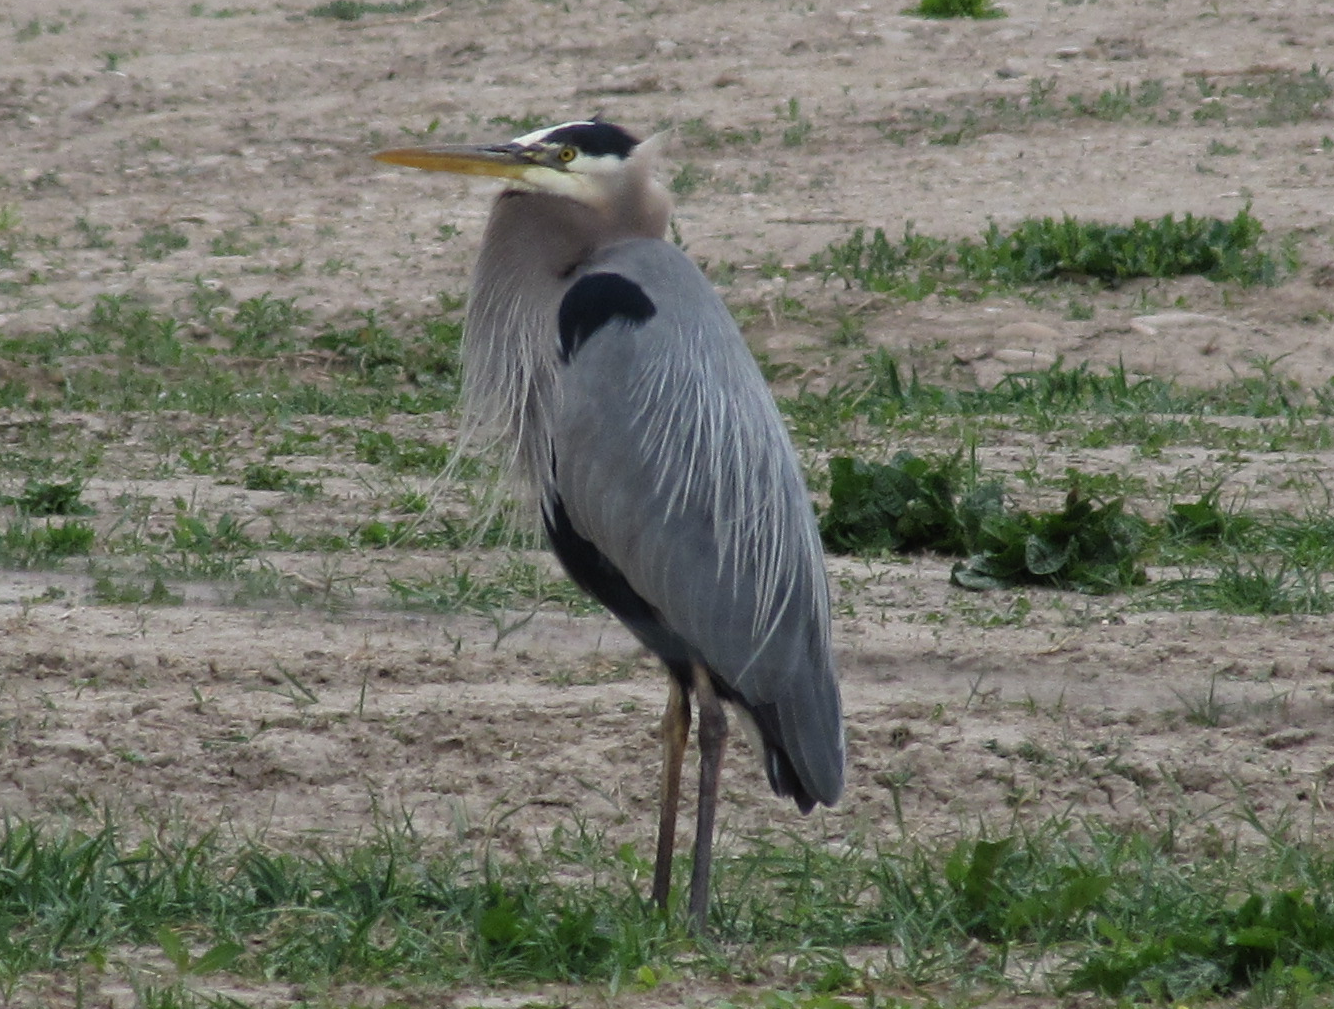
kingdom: Animalia
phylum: Chordata
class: Aves
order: Pelecaniformes
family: Ardeidae
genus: Ardea
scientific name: Ardea herodias
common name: Great blue heron
